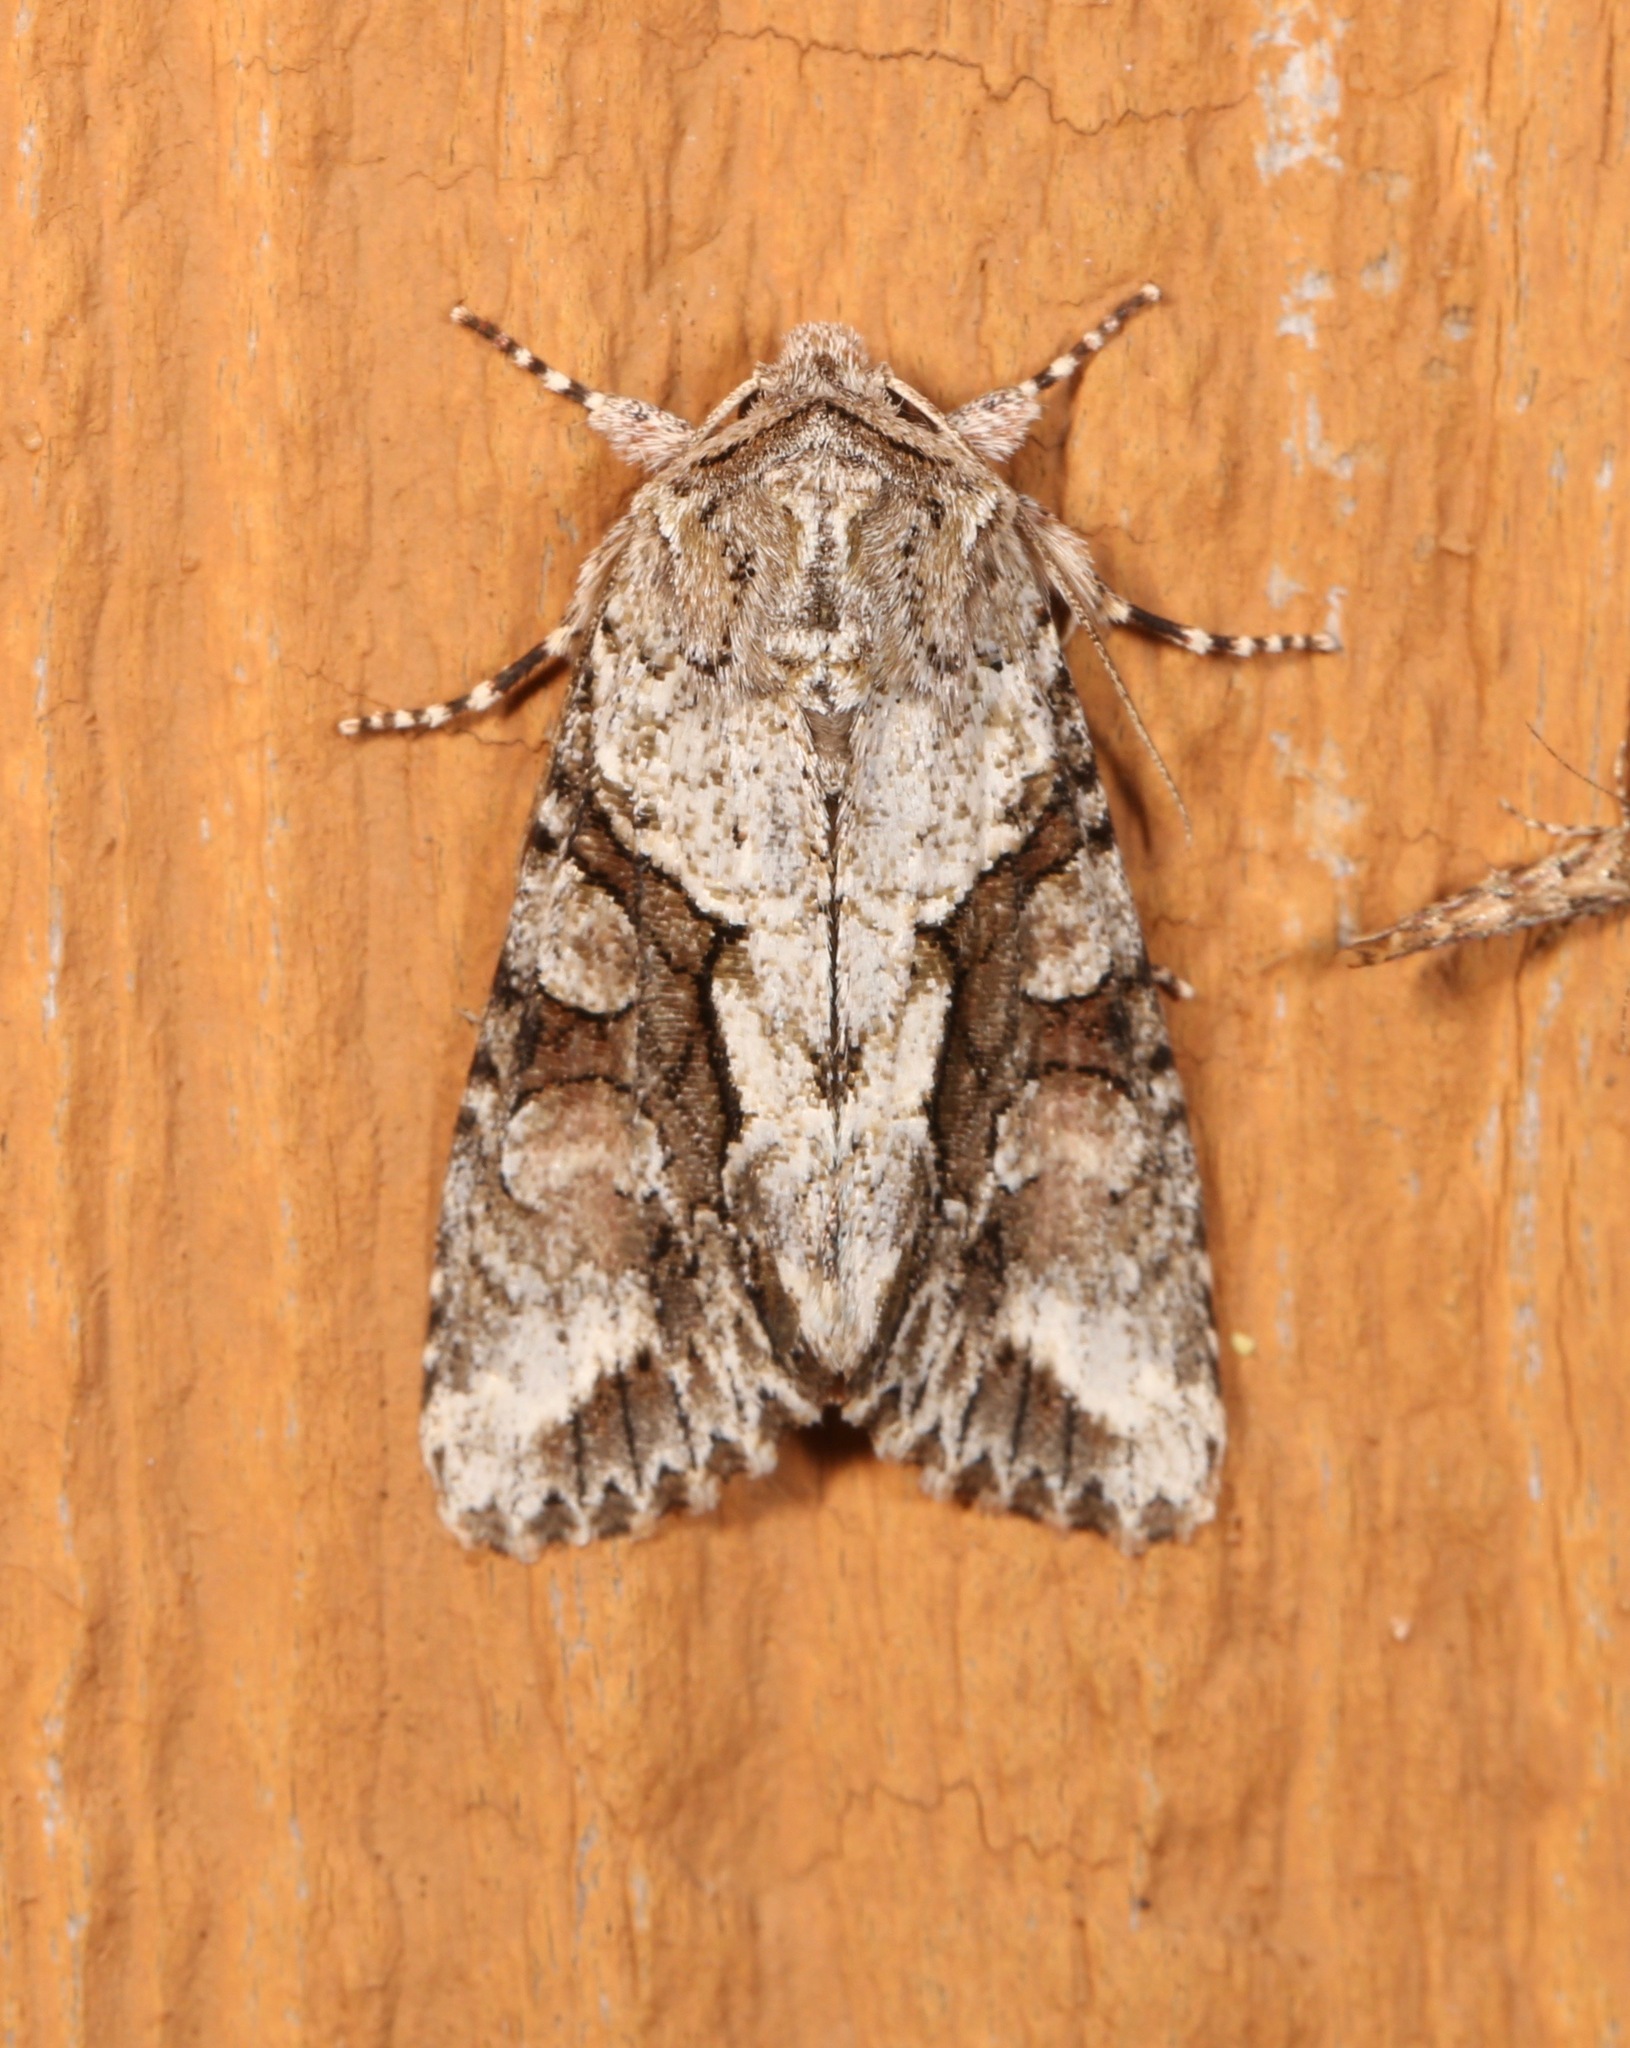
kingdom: Animalia
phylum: Arthropoda
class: Insecta
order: Lepidoptera
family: Noctuidae
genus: Achatia
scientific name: Achatia distincta
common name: Distinct quaker
